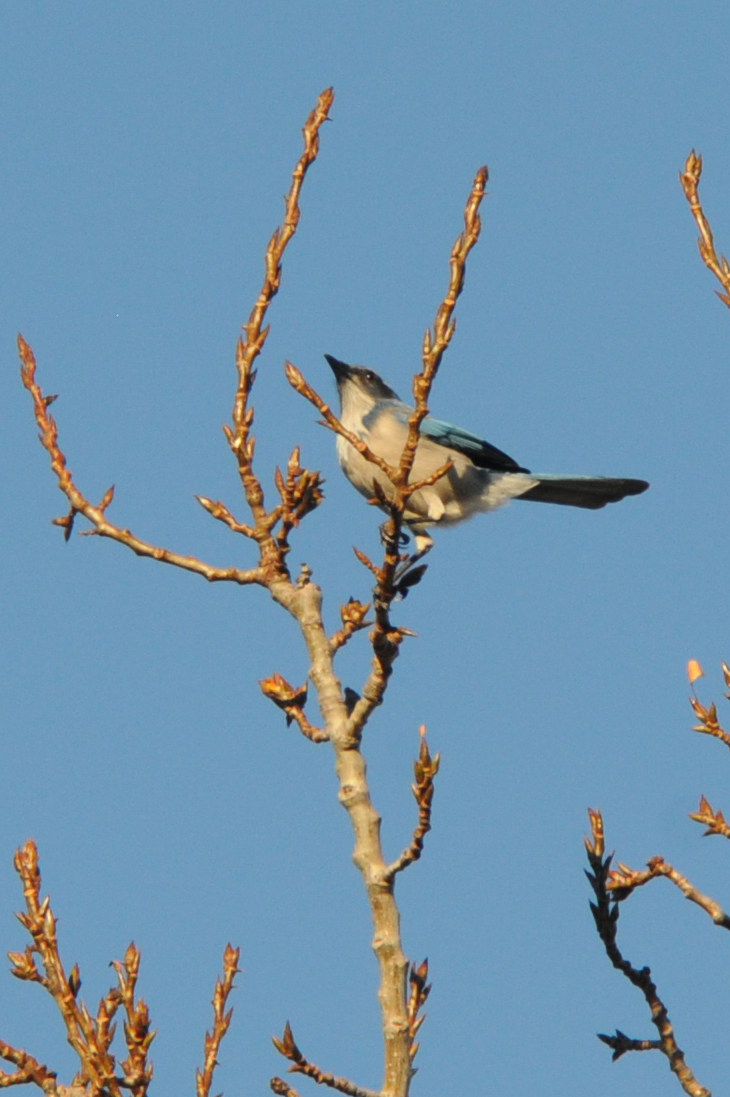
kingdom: Animalia
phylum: Chordata
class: Aves
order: Passeriformes
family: Corvidae
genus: Aphelocoma
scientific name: Aphelocoma californica
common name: California scrub-jay
